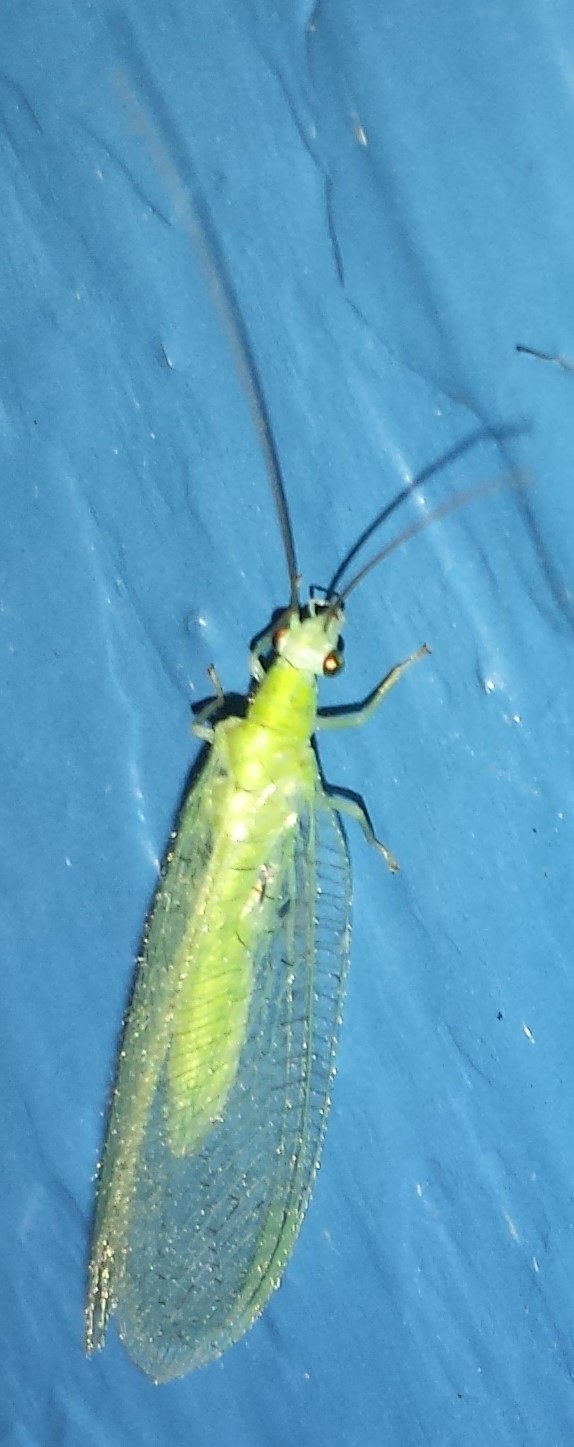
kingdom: Animalia
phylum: Arthropoda
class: Insecta
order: Neuroptera
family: Chrysopidae
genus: Chrysopa
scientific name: Chrysopa nigricornis
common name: Black-horned green lacewing
